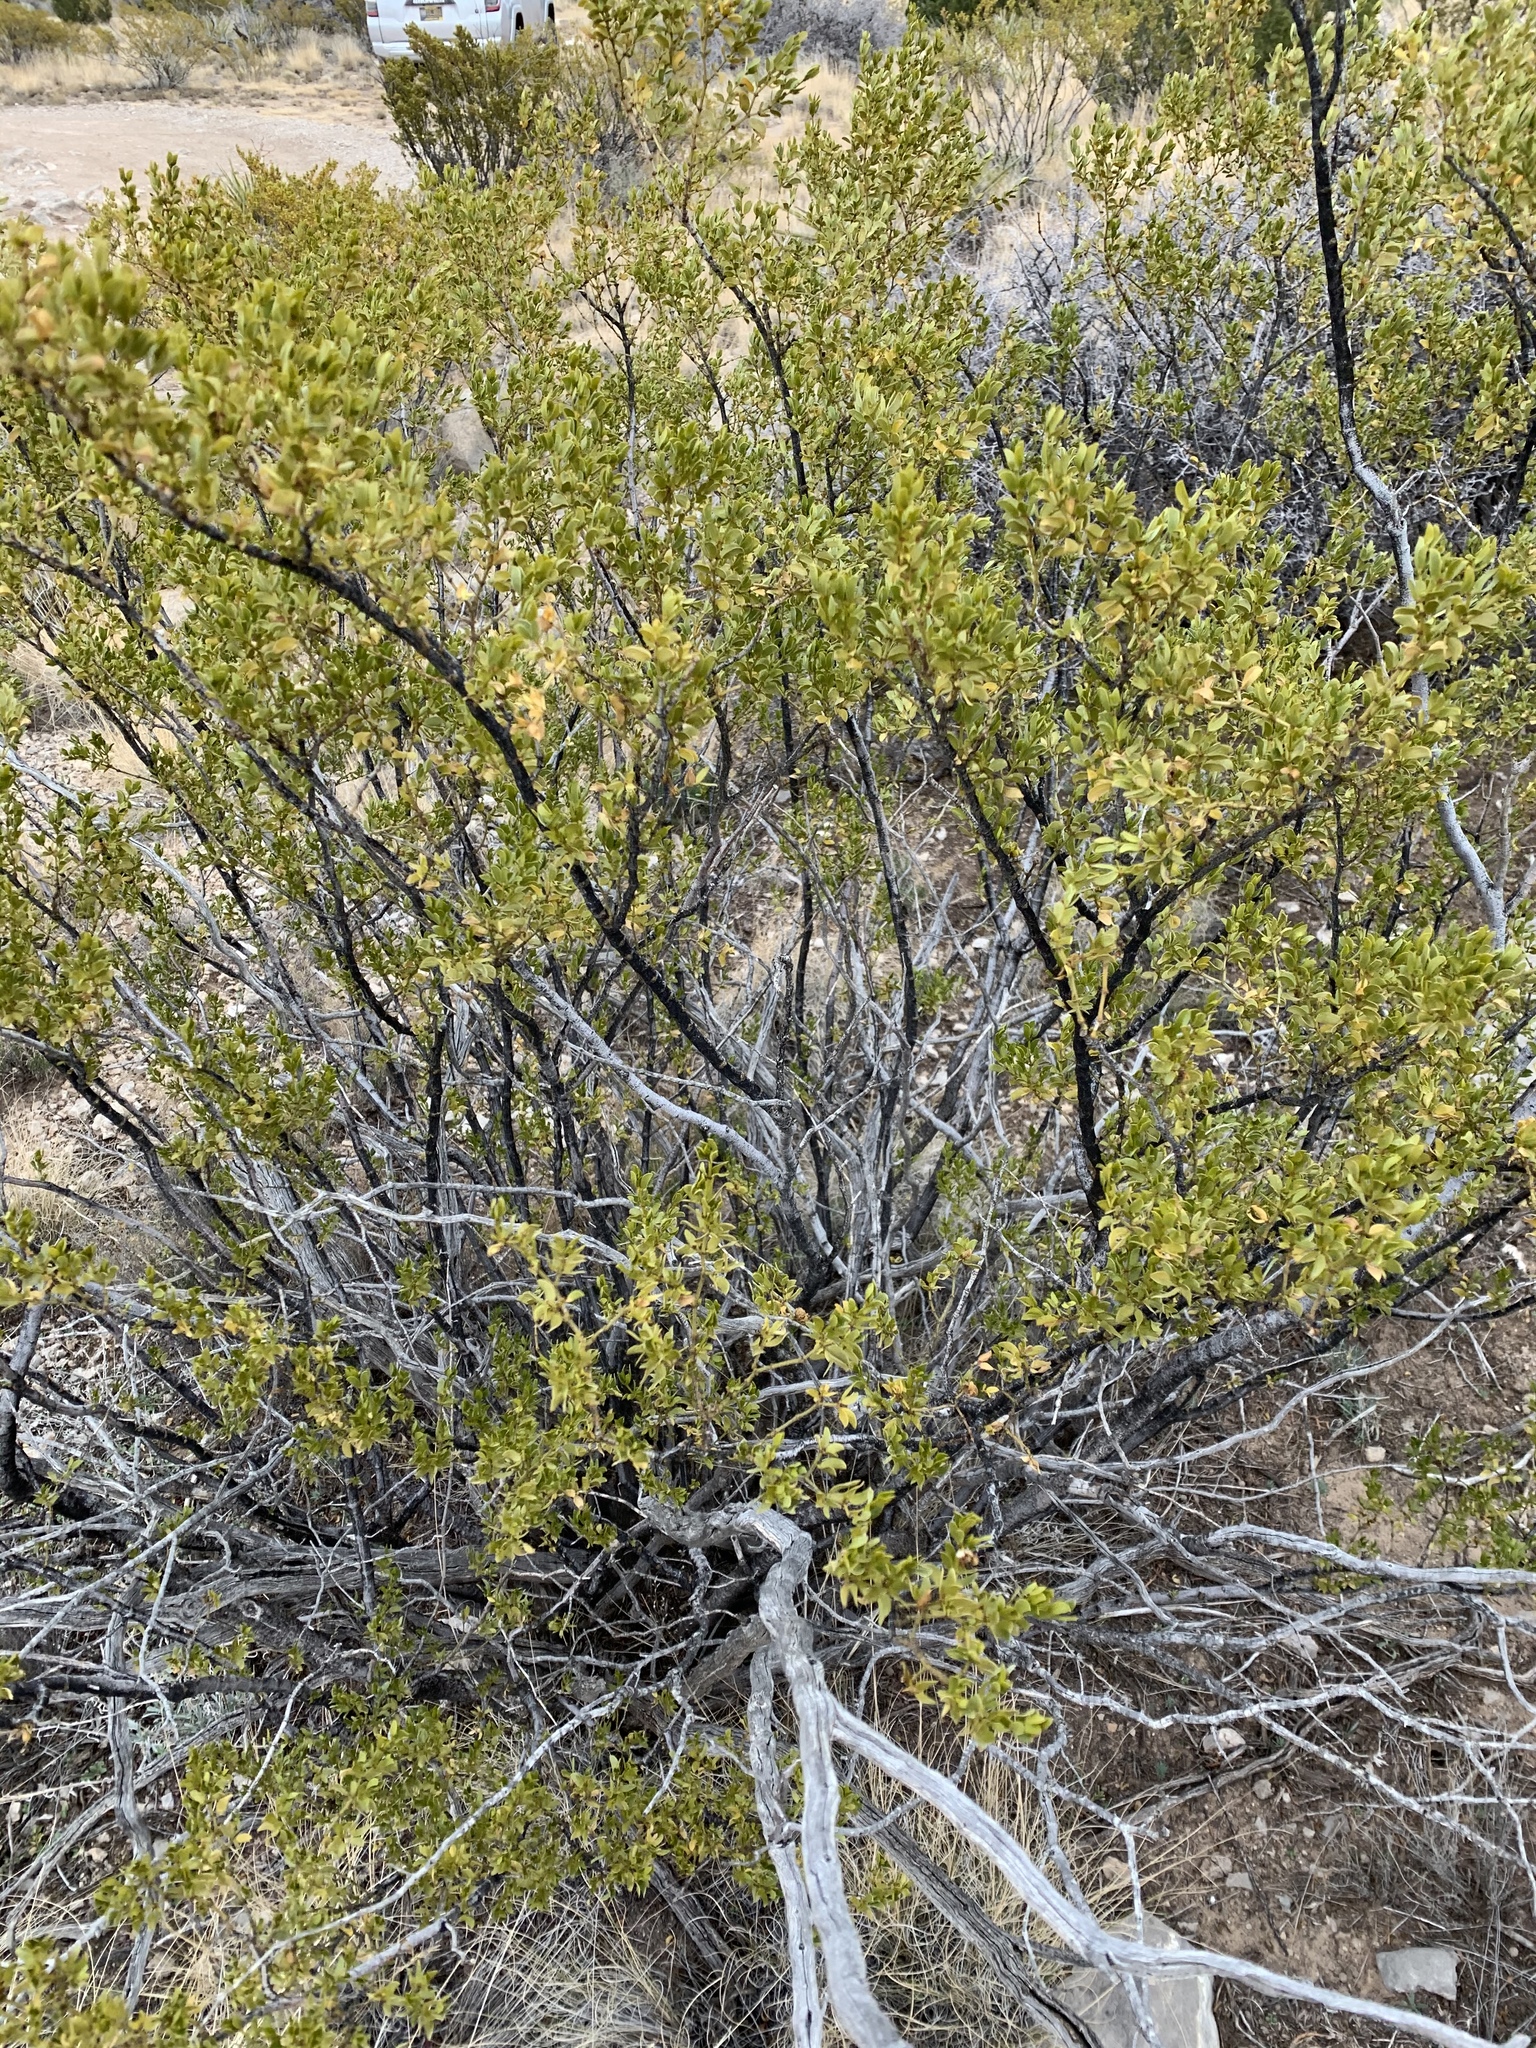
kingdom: Plantae
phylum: Tracheophyta
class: Magnoliopsida
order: Zygophyllales
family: Zygophyllaceae
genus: Larrea
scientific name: Larrea tridentata
